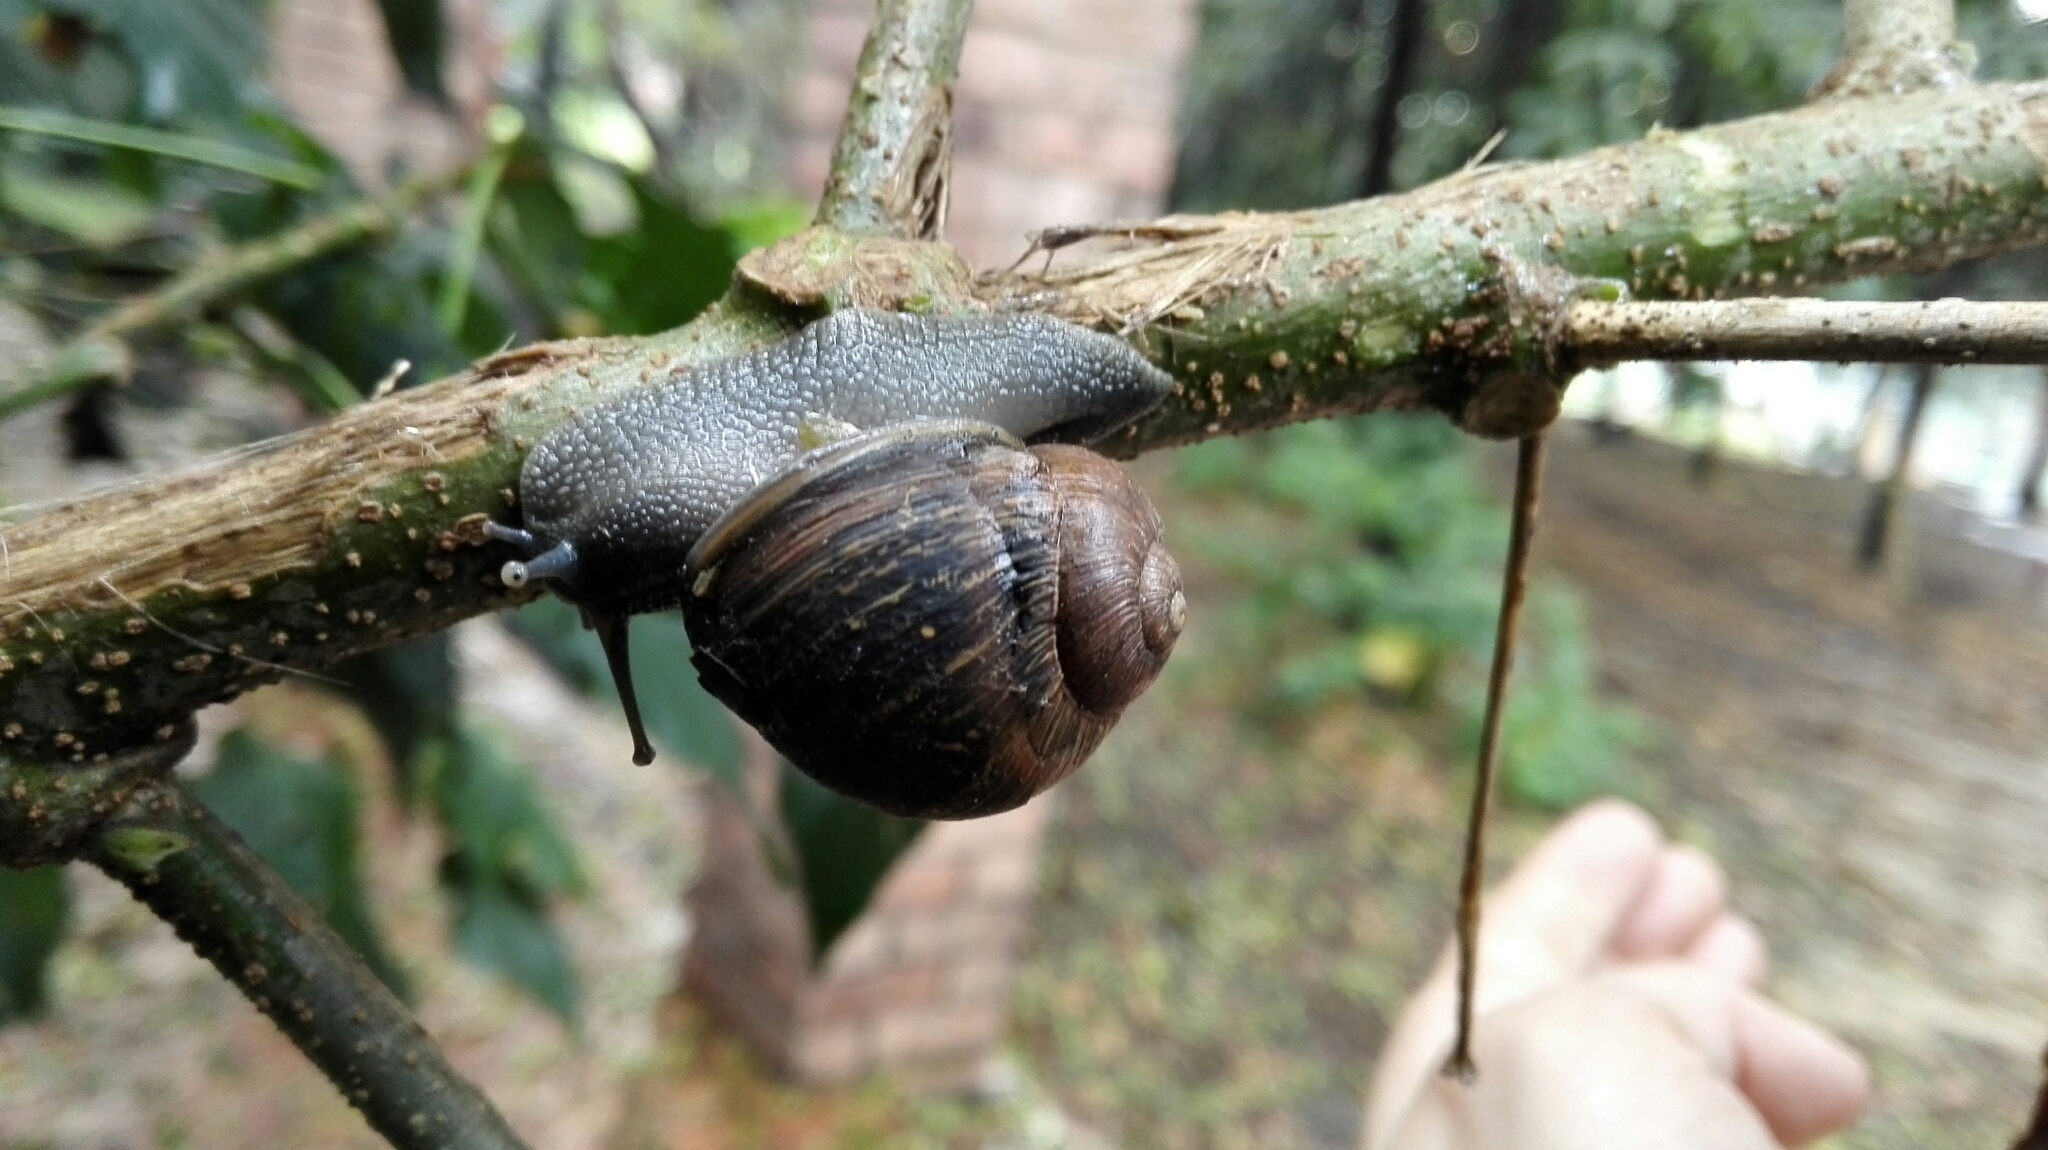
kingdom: Animalia
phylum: Mollusca
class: Gastropoda
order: Stylommatophora
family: Helicidae
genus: Cornu
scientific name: Cornu aspersum
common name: Brown garden snail
